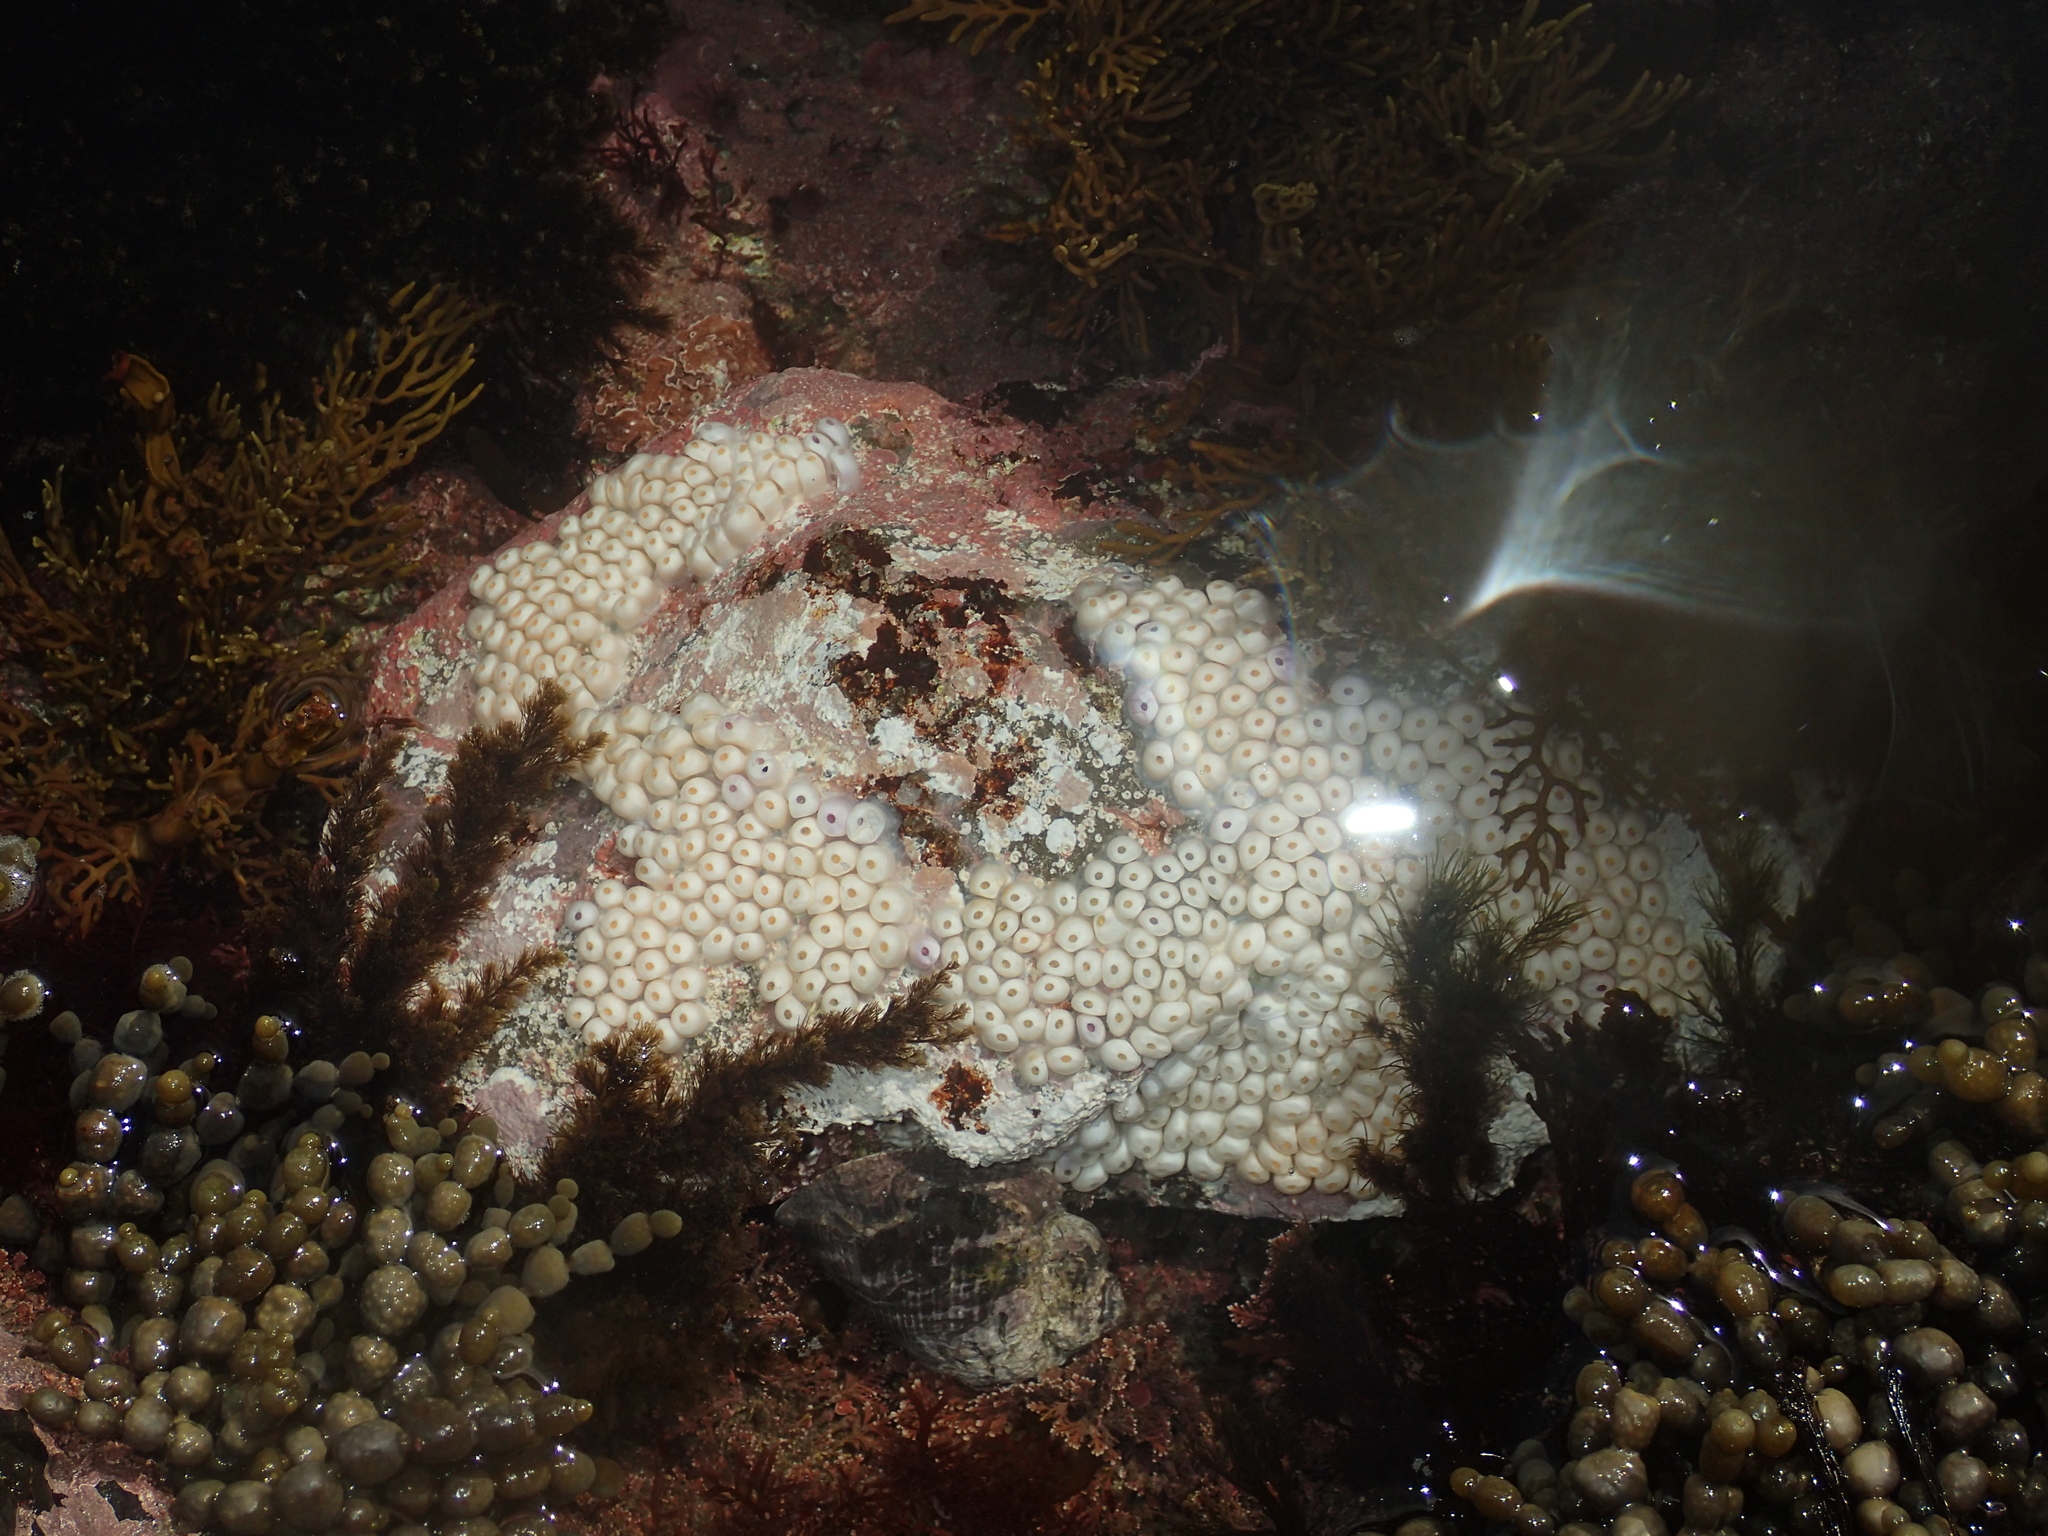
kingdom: Animalia
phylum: Mollusca
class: Gastropoda
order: Neogastropoda
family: Muricidae
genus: Haustrum
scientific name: Haustrum haustorium
